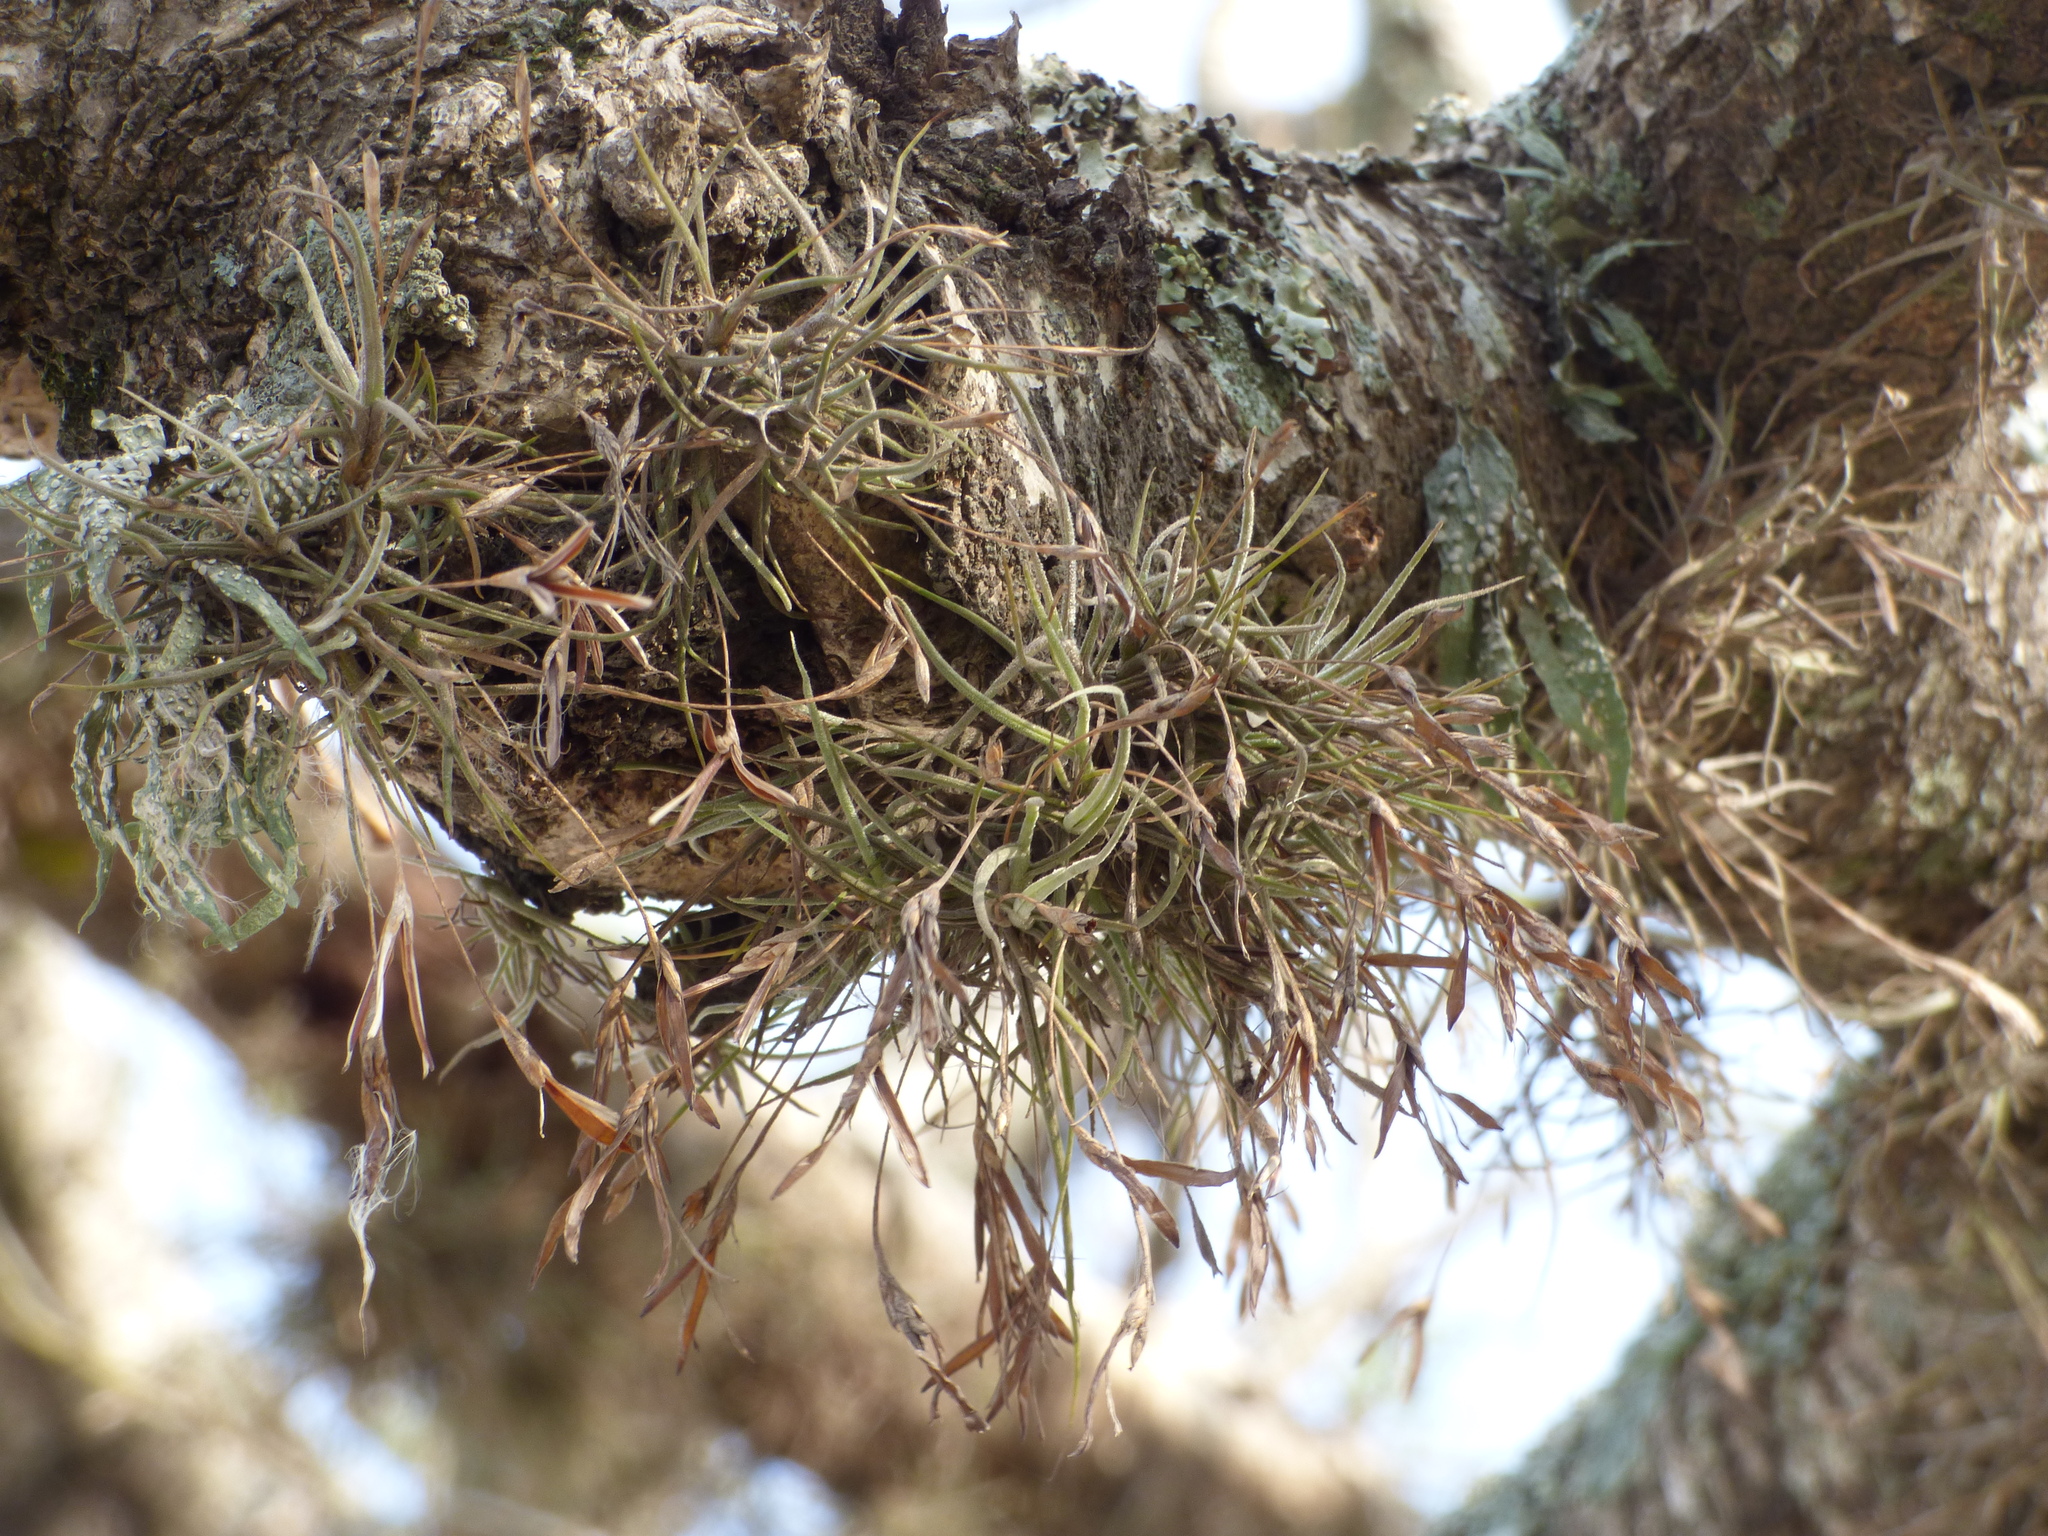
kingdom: Plantae
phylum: Tracheophyta
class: Liliopsida
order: Poales
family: Bromeliaceae
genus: Tillandsia
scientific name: Tillandsia recurvata
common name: Small ballmoss
